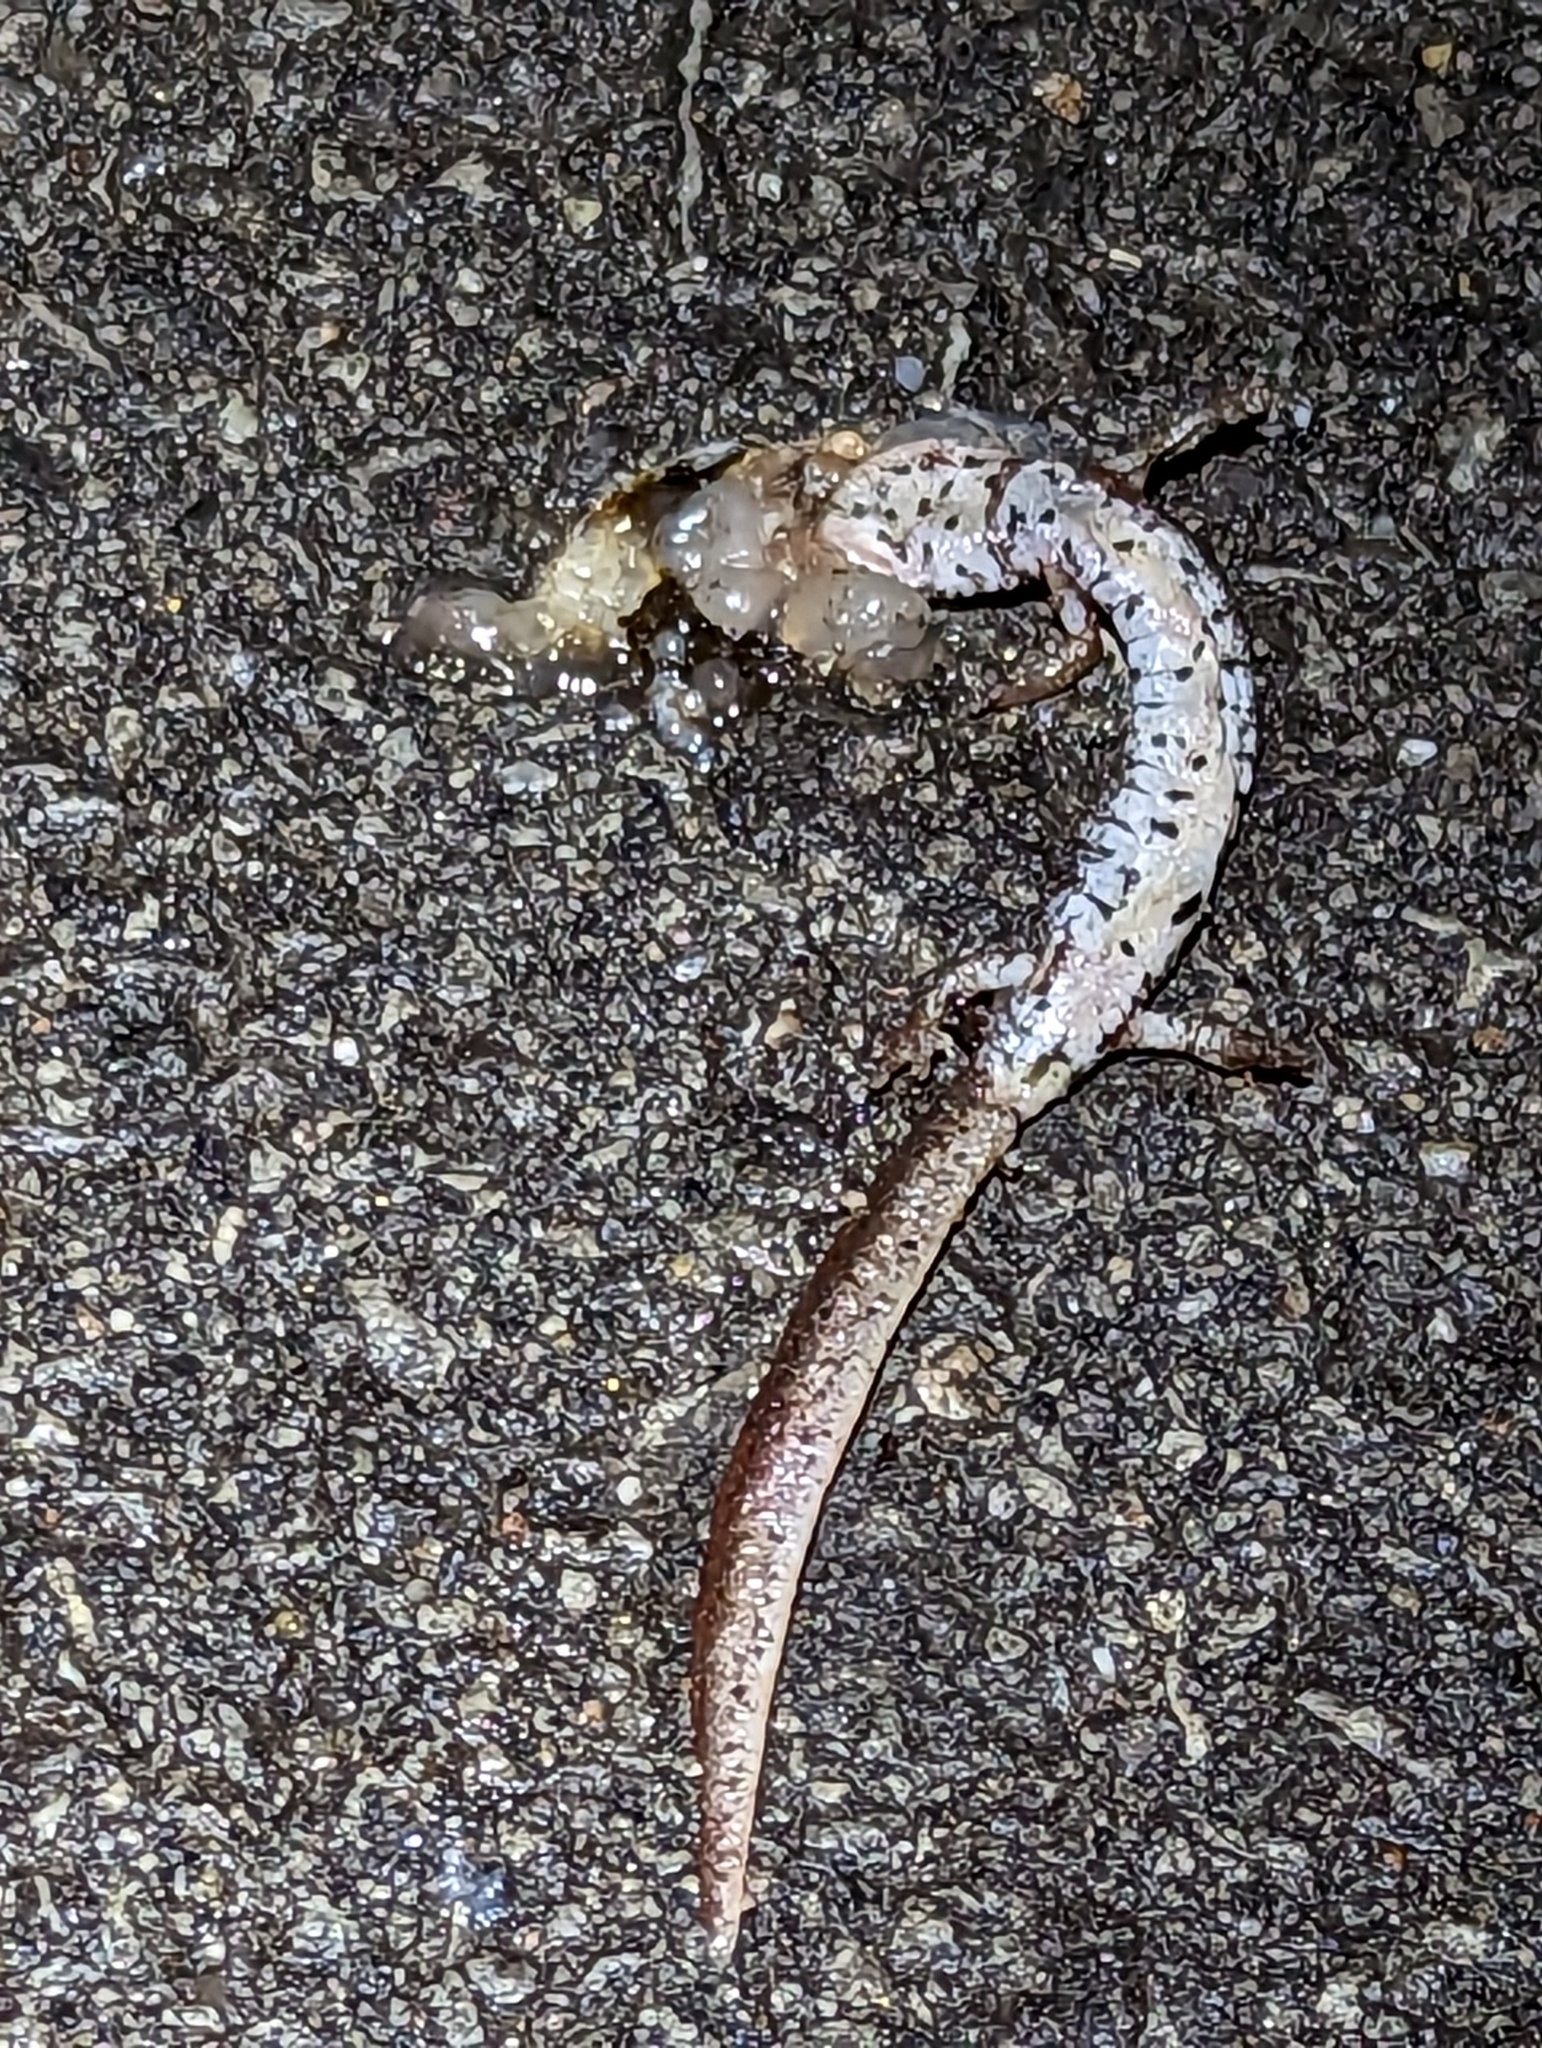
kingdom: Animalia
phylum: Chordata
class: Amphibia
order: Caudata
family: Plethodontidae
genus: Hemidactylium
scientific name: Hemidactylium scutatum
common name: Four-toed salamander
